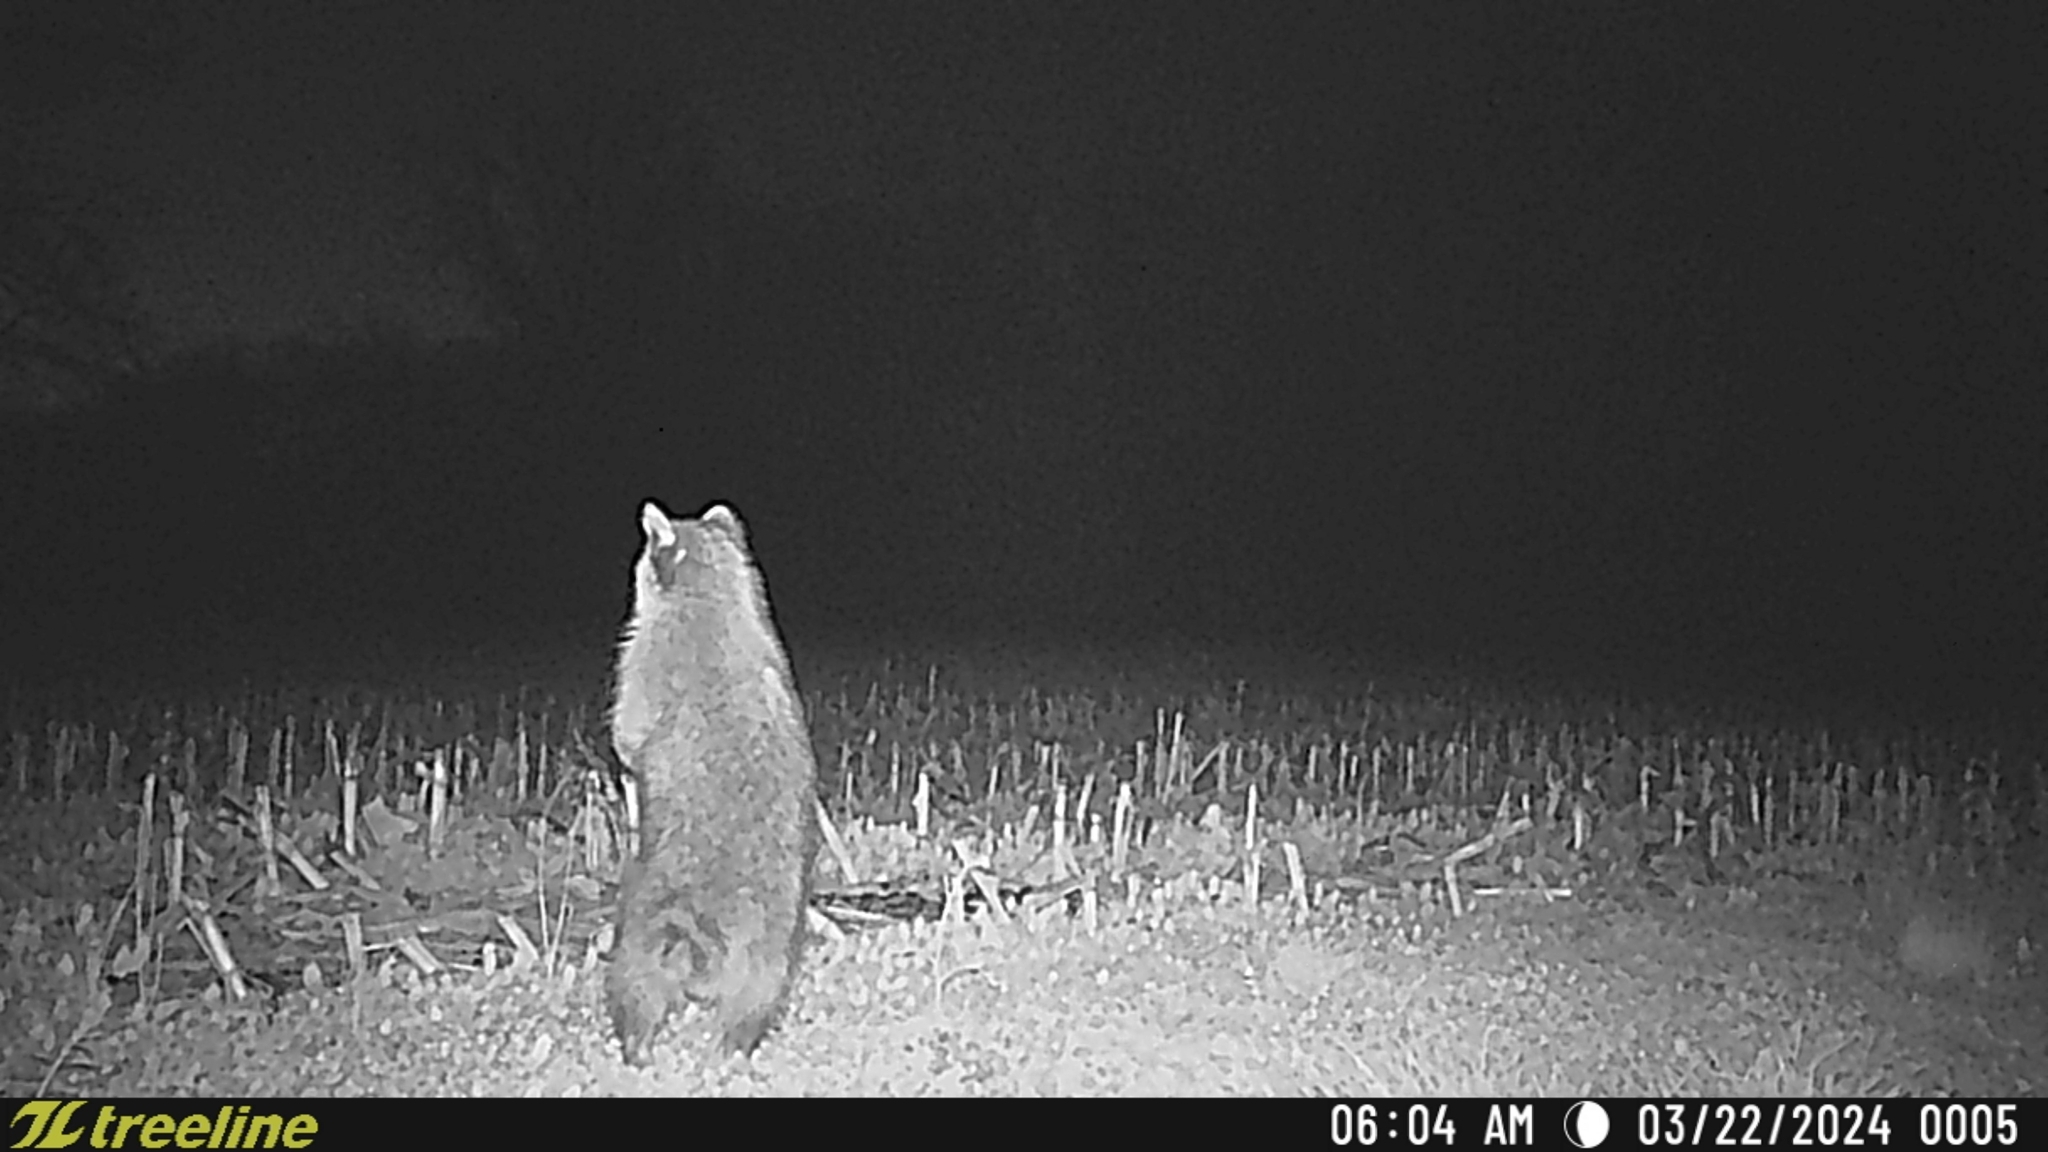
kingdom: Animalia
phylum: Chordata
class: Mammalia
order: Carnivora
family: Procyonidae
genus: Procyon
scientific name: Procyon lotor
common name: Raccoon
